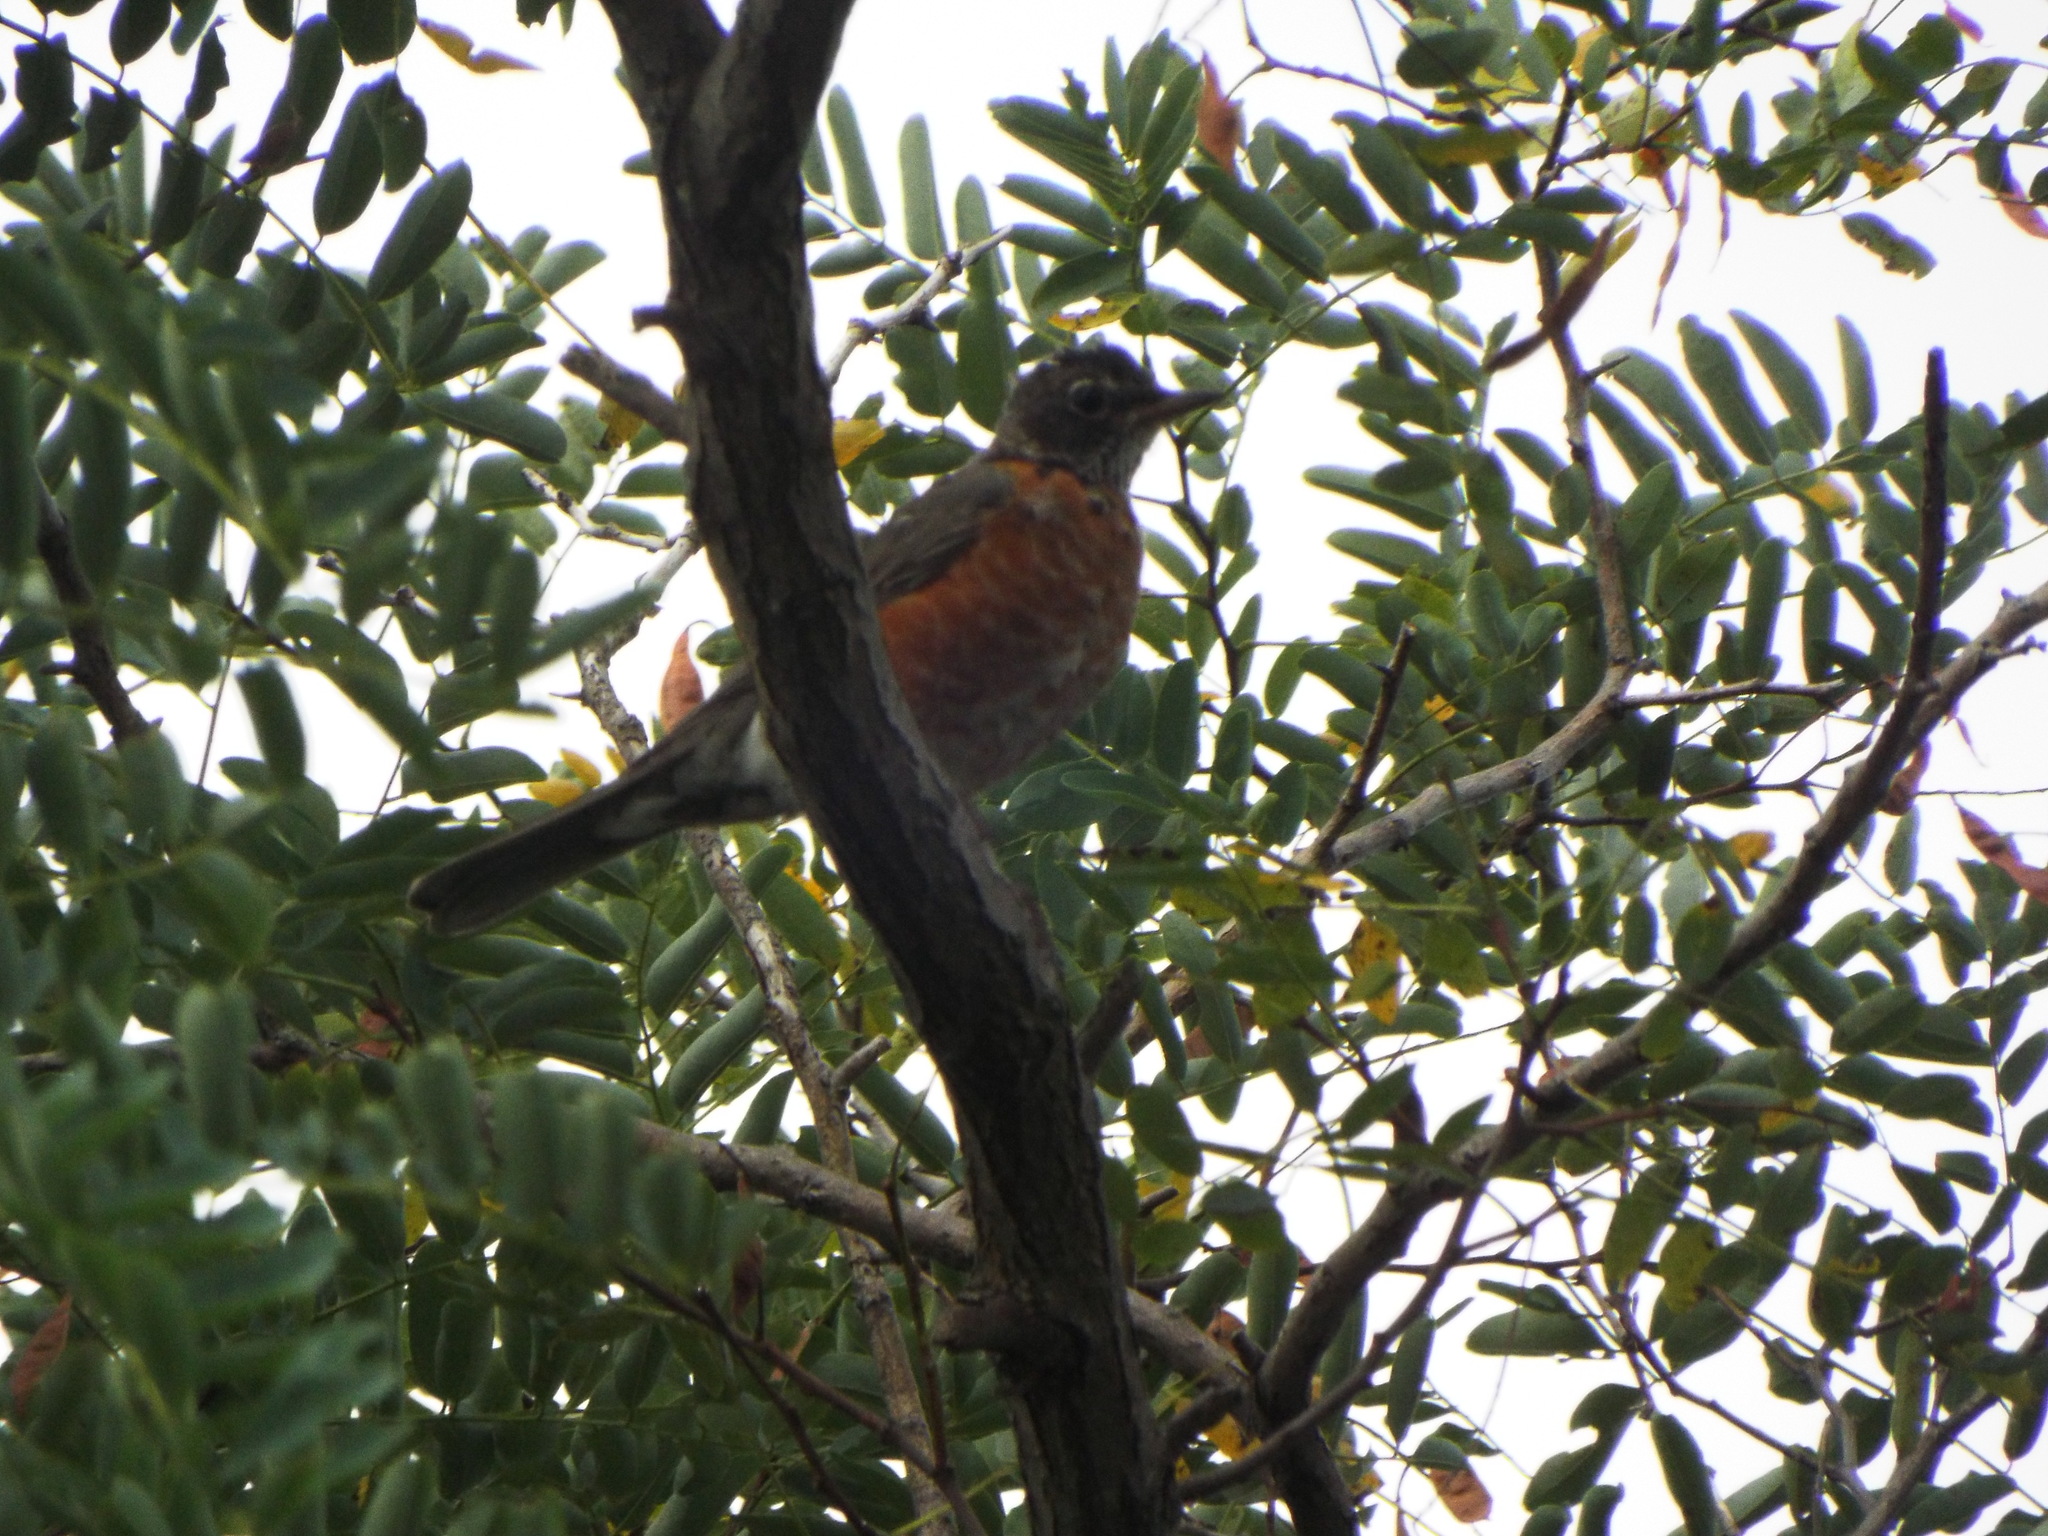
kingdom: Animalia
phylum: Chordata
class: Aves
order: Passeriformes
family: Turdidae
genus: Turdus
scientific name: Turdus migratorius
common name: American robin
